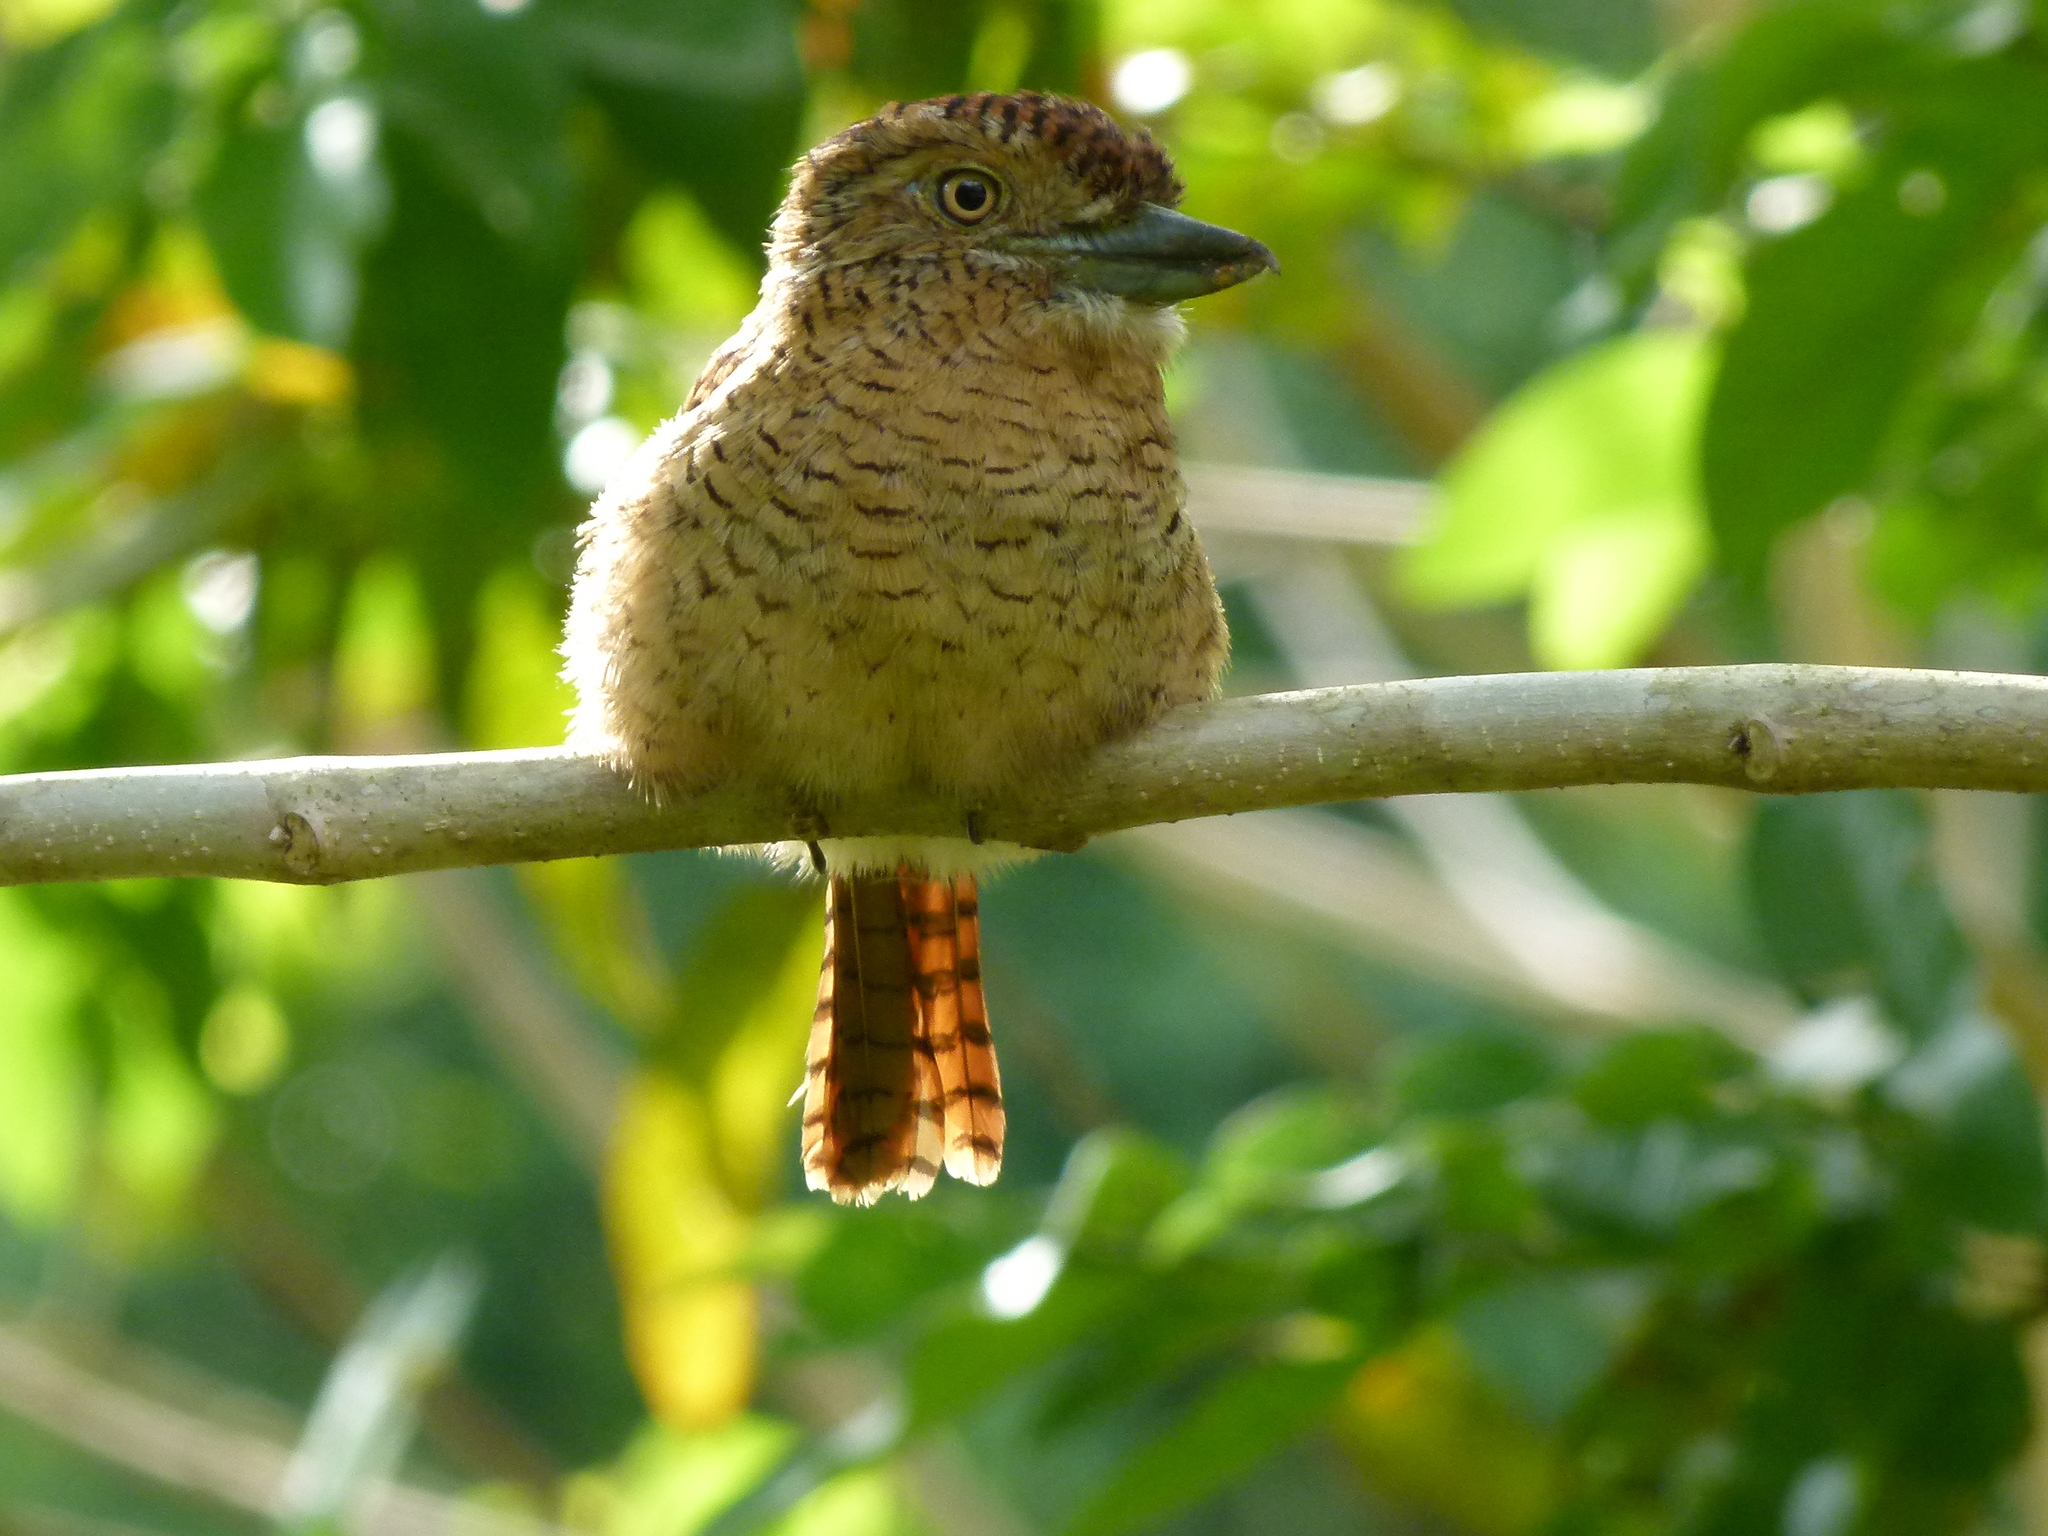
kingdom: Animalia
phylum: Chordata
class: Aves
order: Piciformes
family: Bucconidae
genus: Nystalus
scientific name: Nystalus radiatus
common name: Barred puffbird
